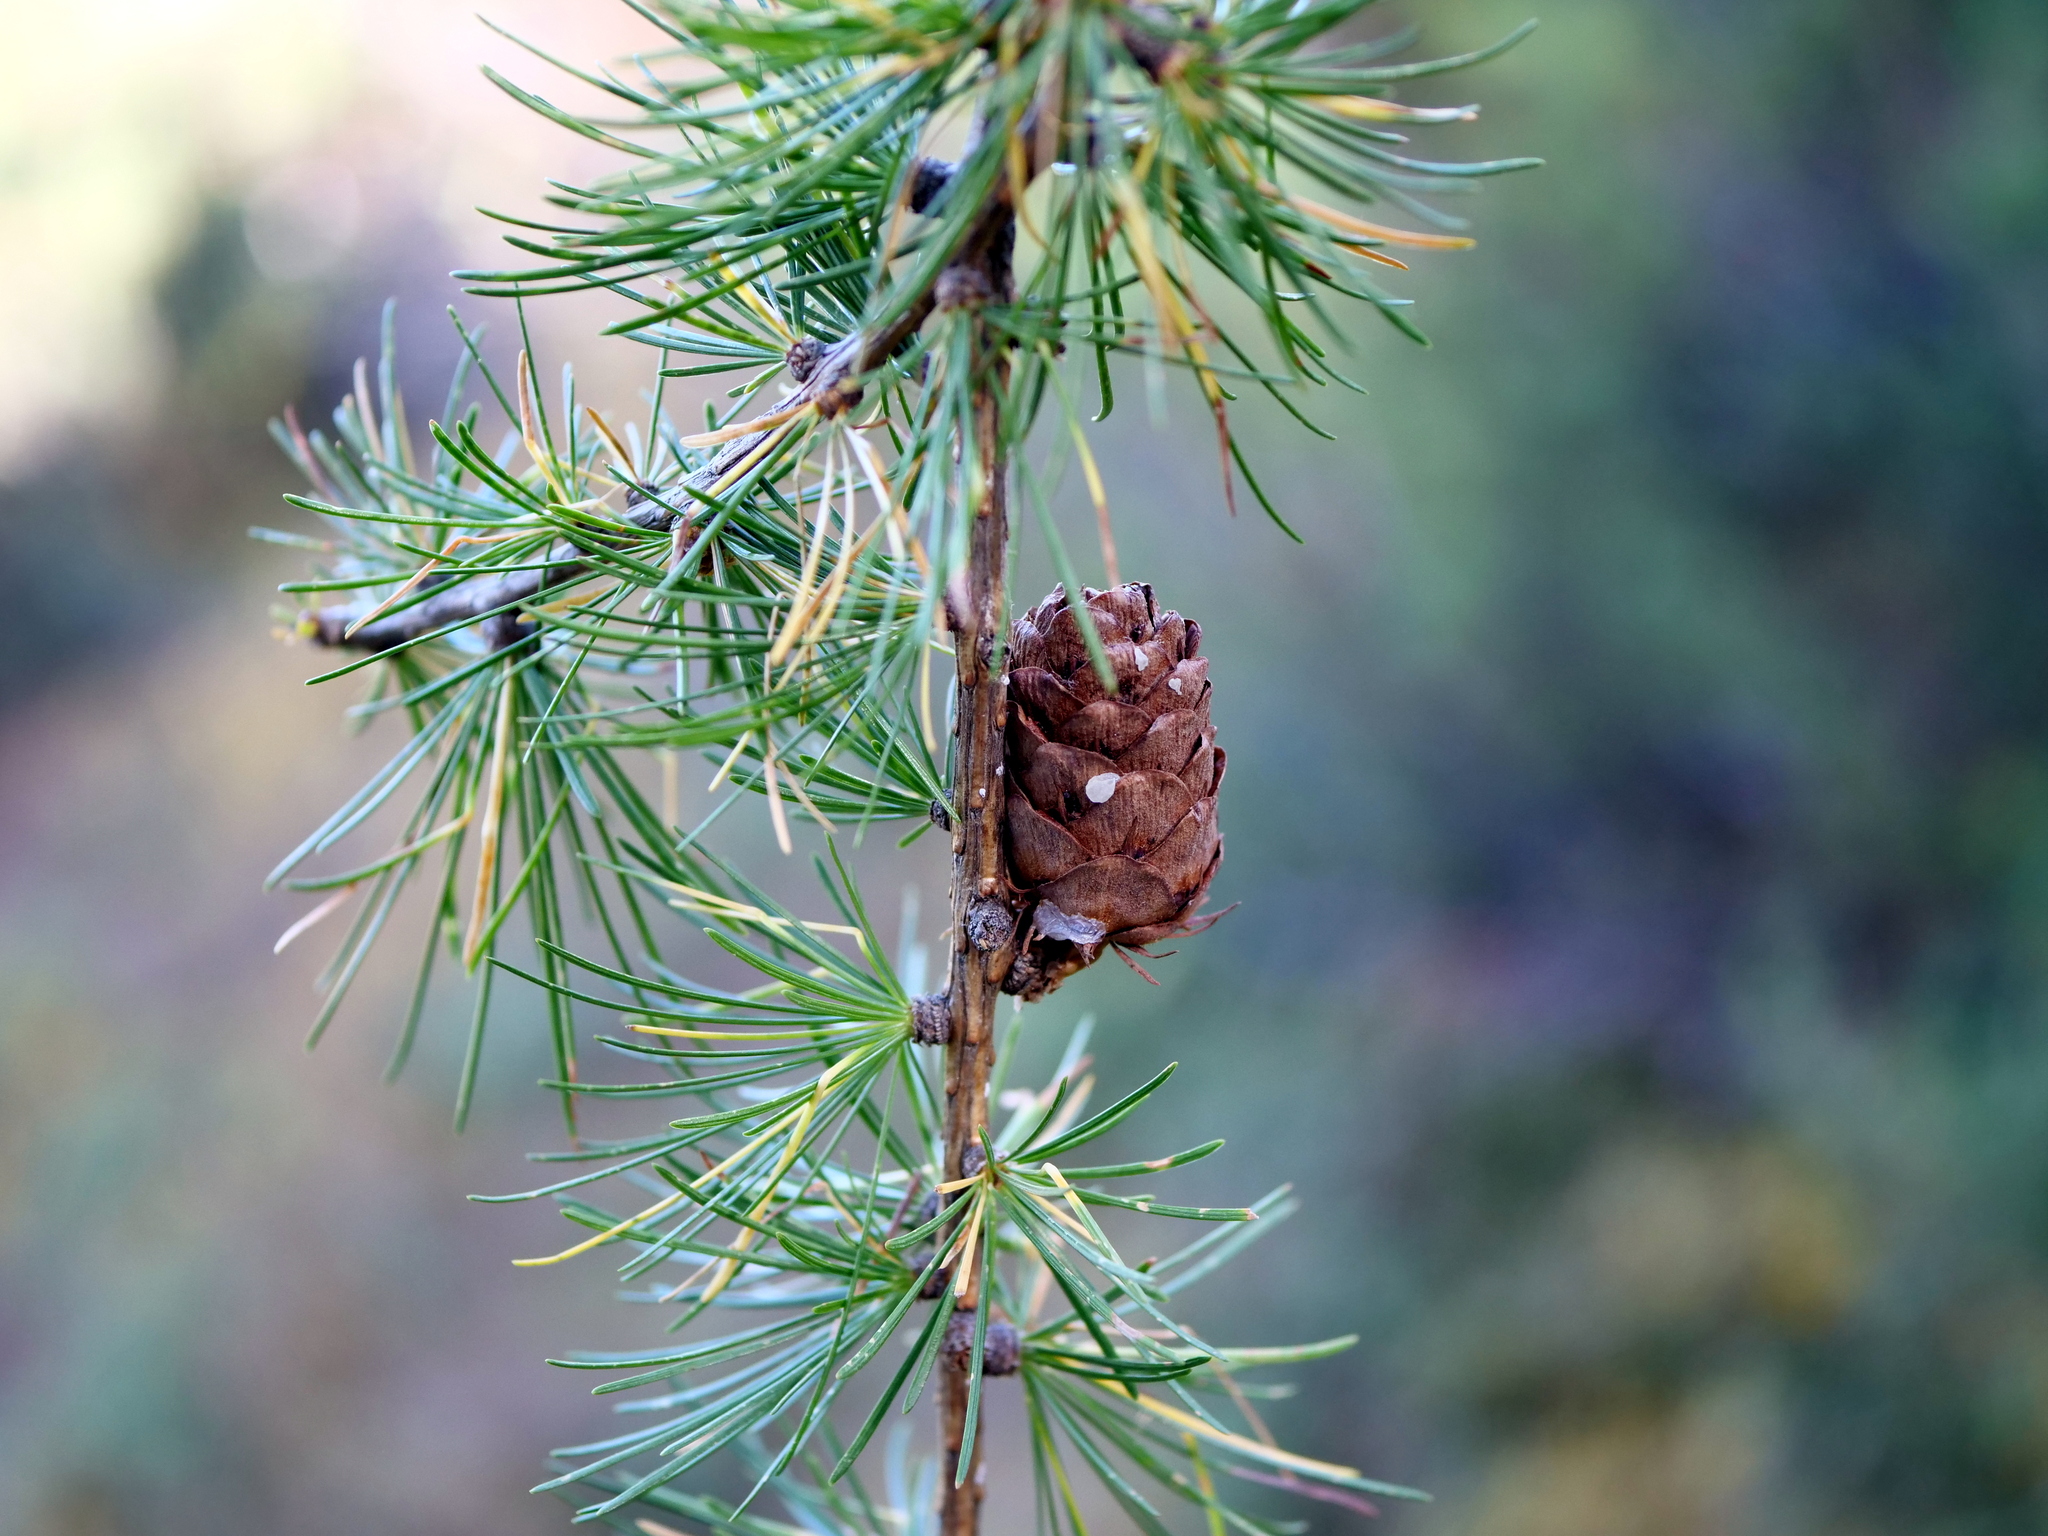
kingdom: Plantae
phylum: Tracheophyta
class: Pinopsida
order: Pinales
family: Pinaceae
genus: Larix
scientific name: Larix decidua
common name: European larch
